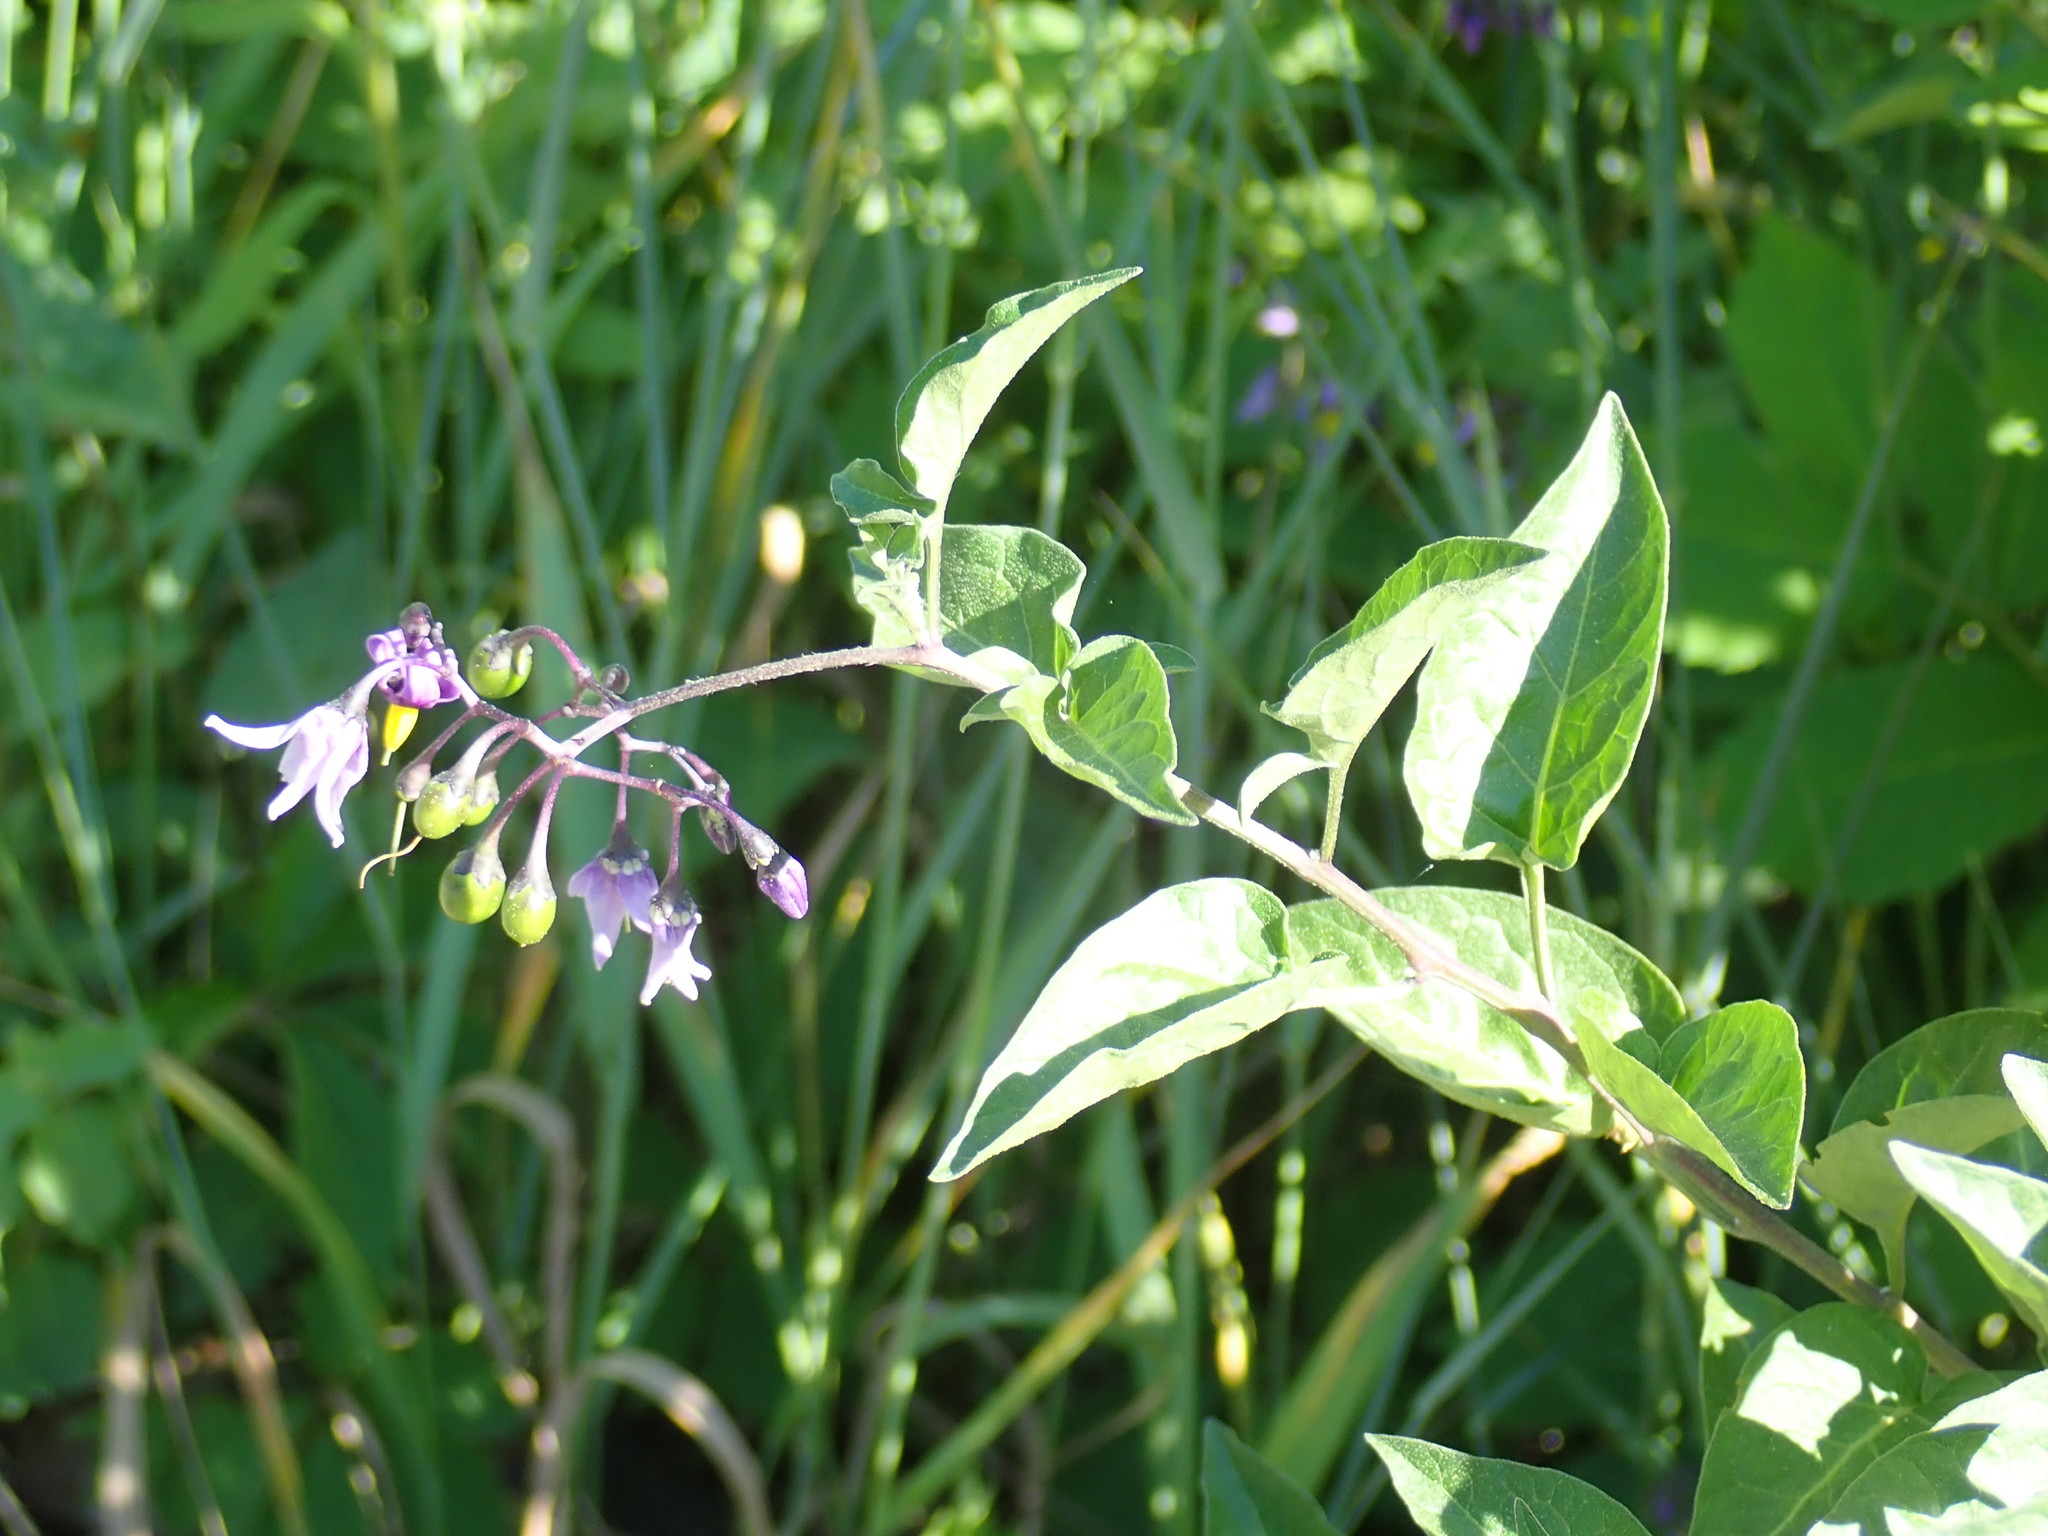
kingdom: Plantae
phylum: Tracheophyta
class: Magnoliopsida
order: Solanales
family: Solanaceae
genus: Solanum
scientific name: Solanum dulcamara
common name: Climbing nightshade
